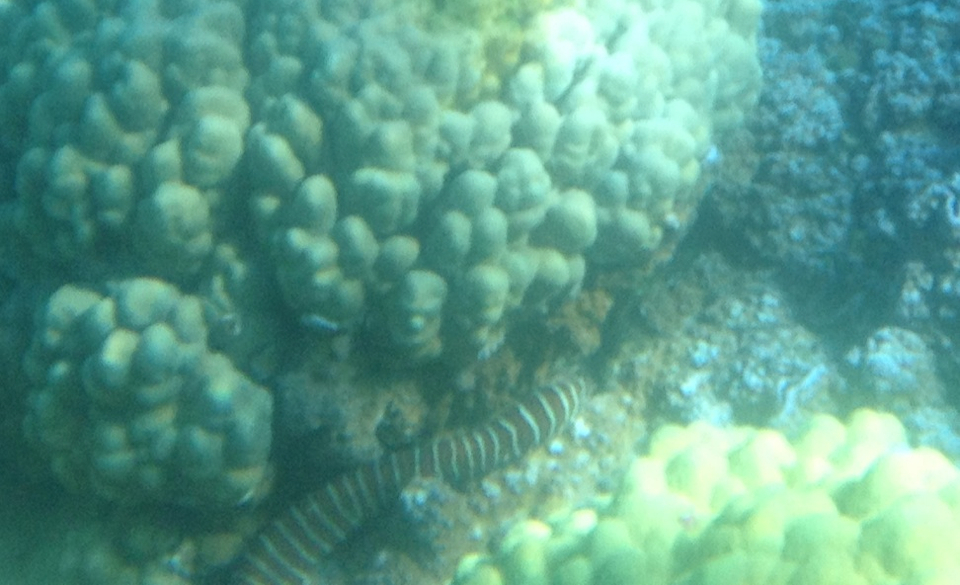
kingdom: Animalia
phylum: Chordata
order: Anguilliformes
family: Muraenidae
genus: Gymnomuraena
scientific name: Gymnomuraena zebra
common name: Zebra moray
